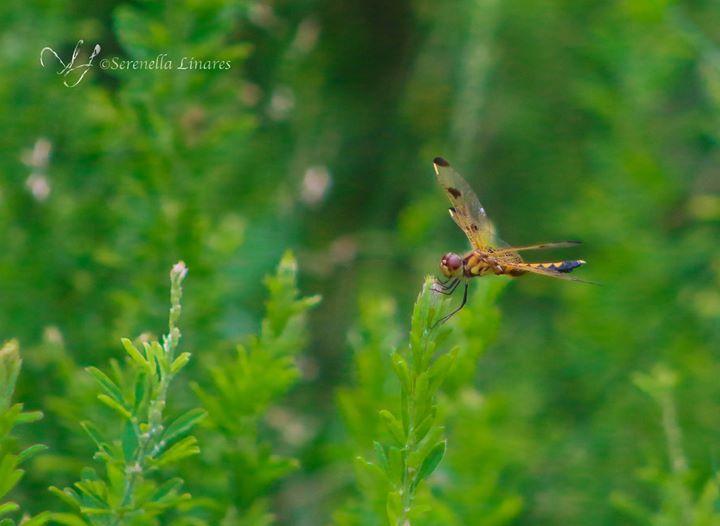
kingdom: Animalia
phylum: Arthropoda
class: Insecta
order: Odonata
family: Libellulidae
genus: Celithemis
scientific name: Celithemis elisa
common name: Calico pennant
